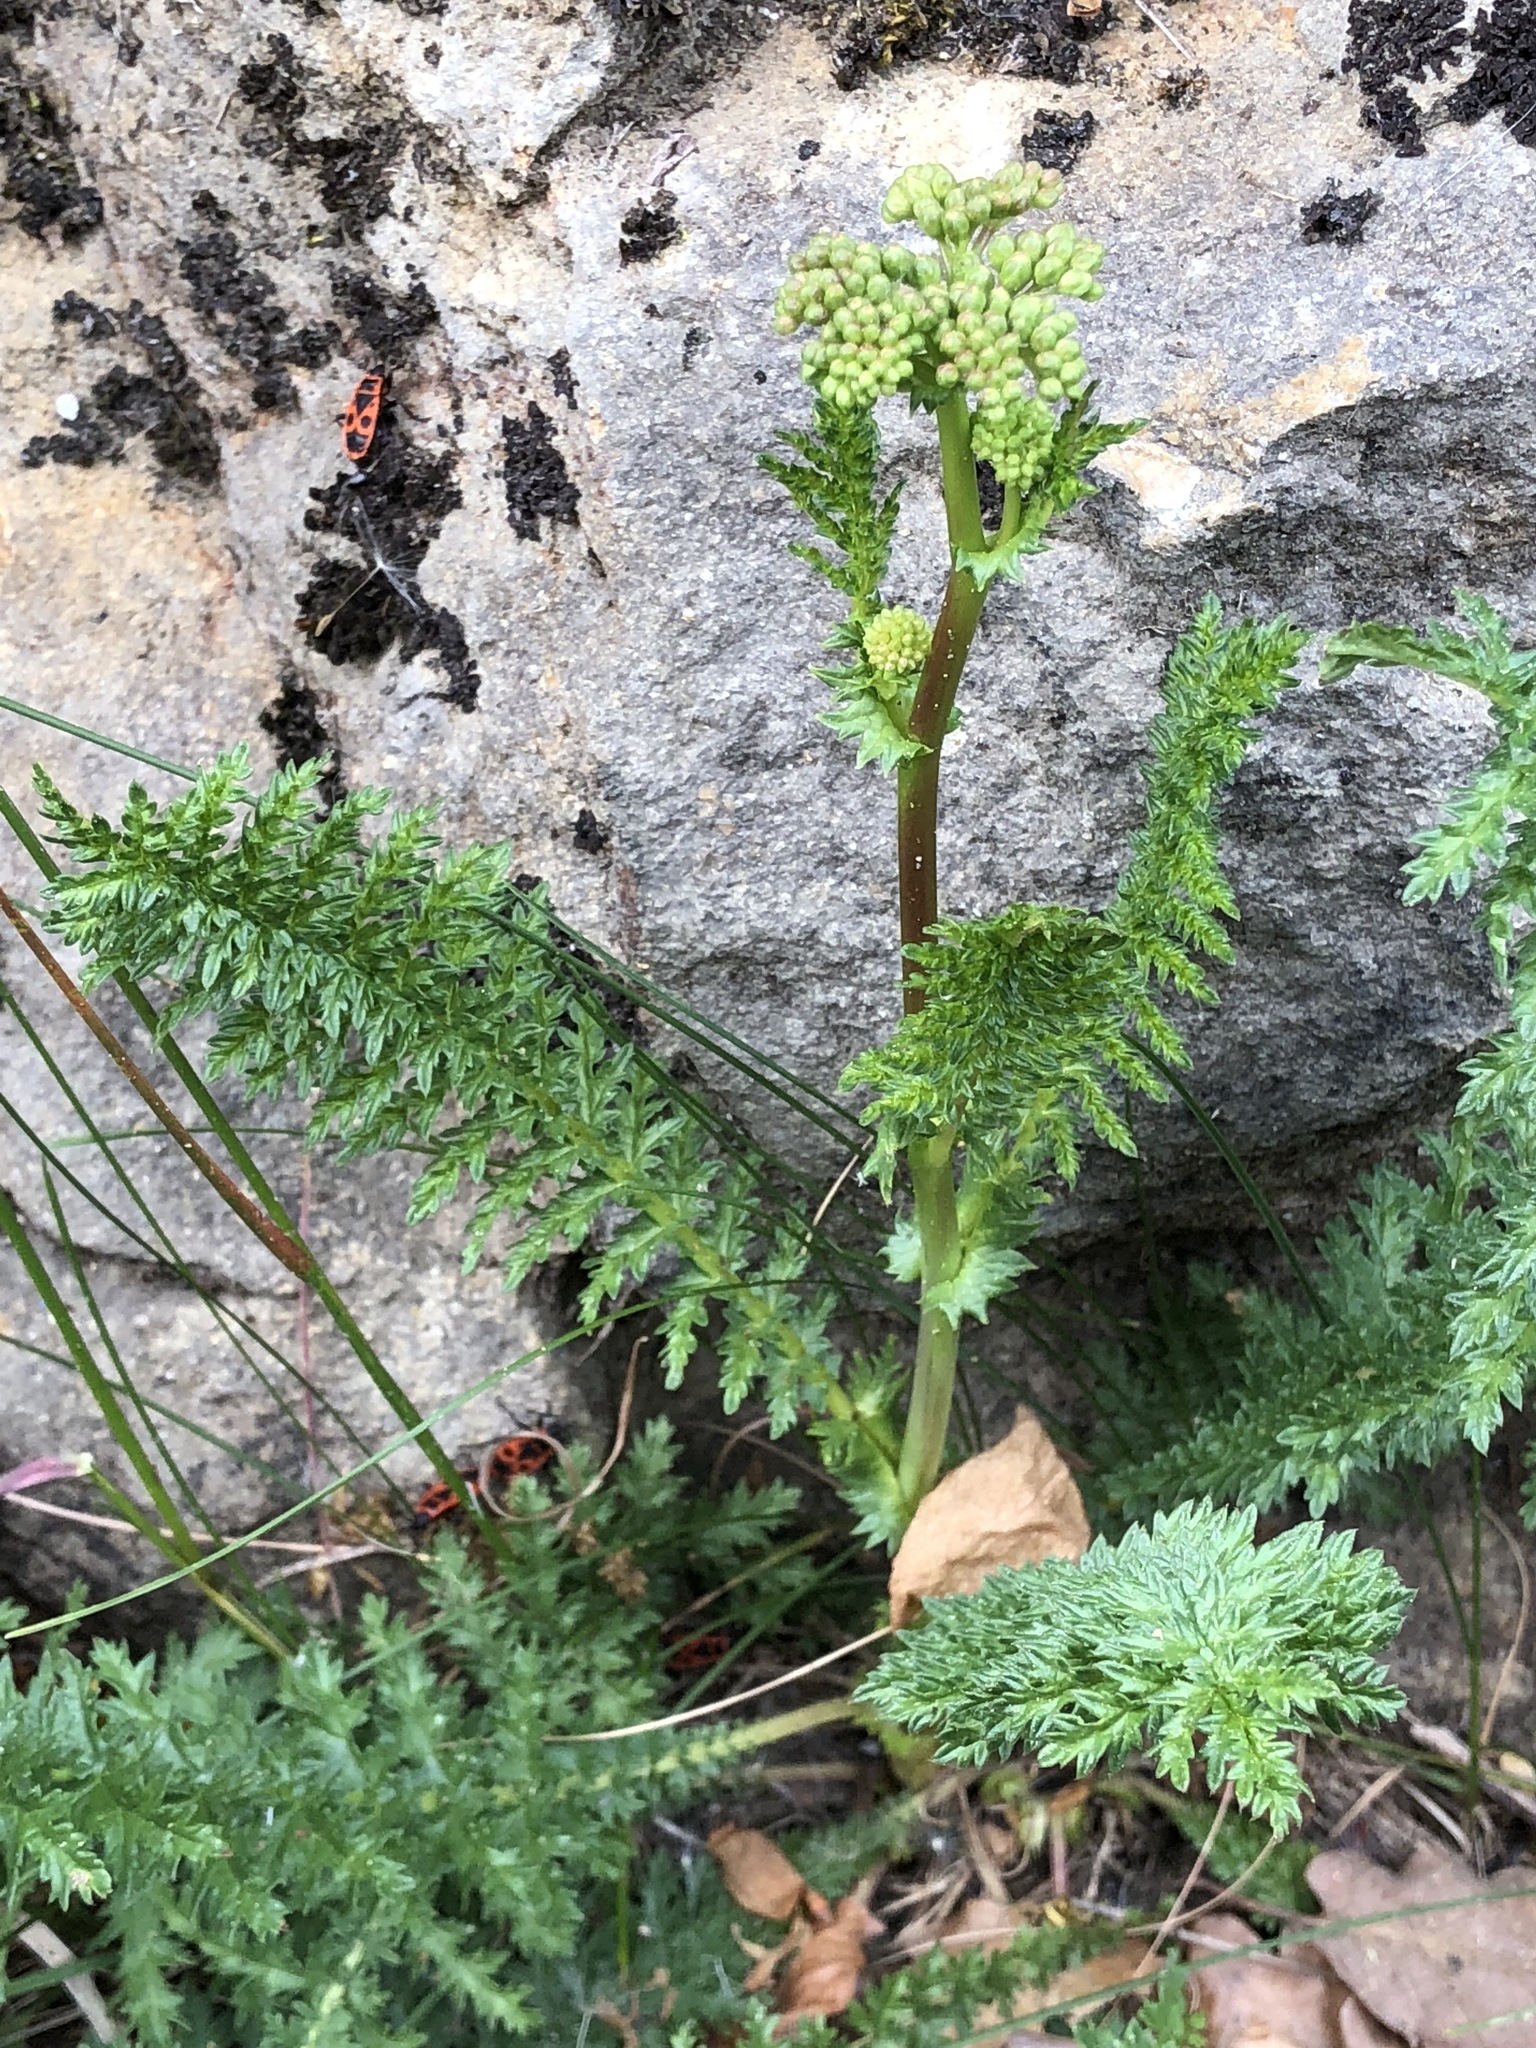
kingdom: Plantae
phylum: Tracheophyta
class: Magnoliopsida
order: Rosales
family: Rosaceae
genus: Filipendula
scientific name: Filipendula vulgaris
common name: Dropwort
